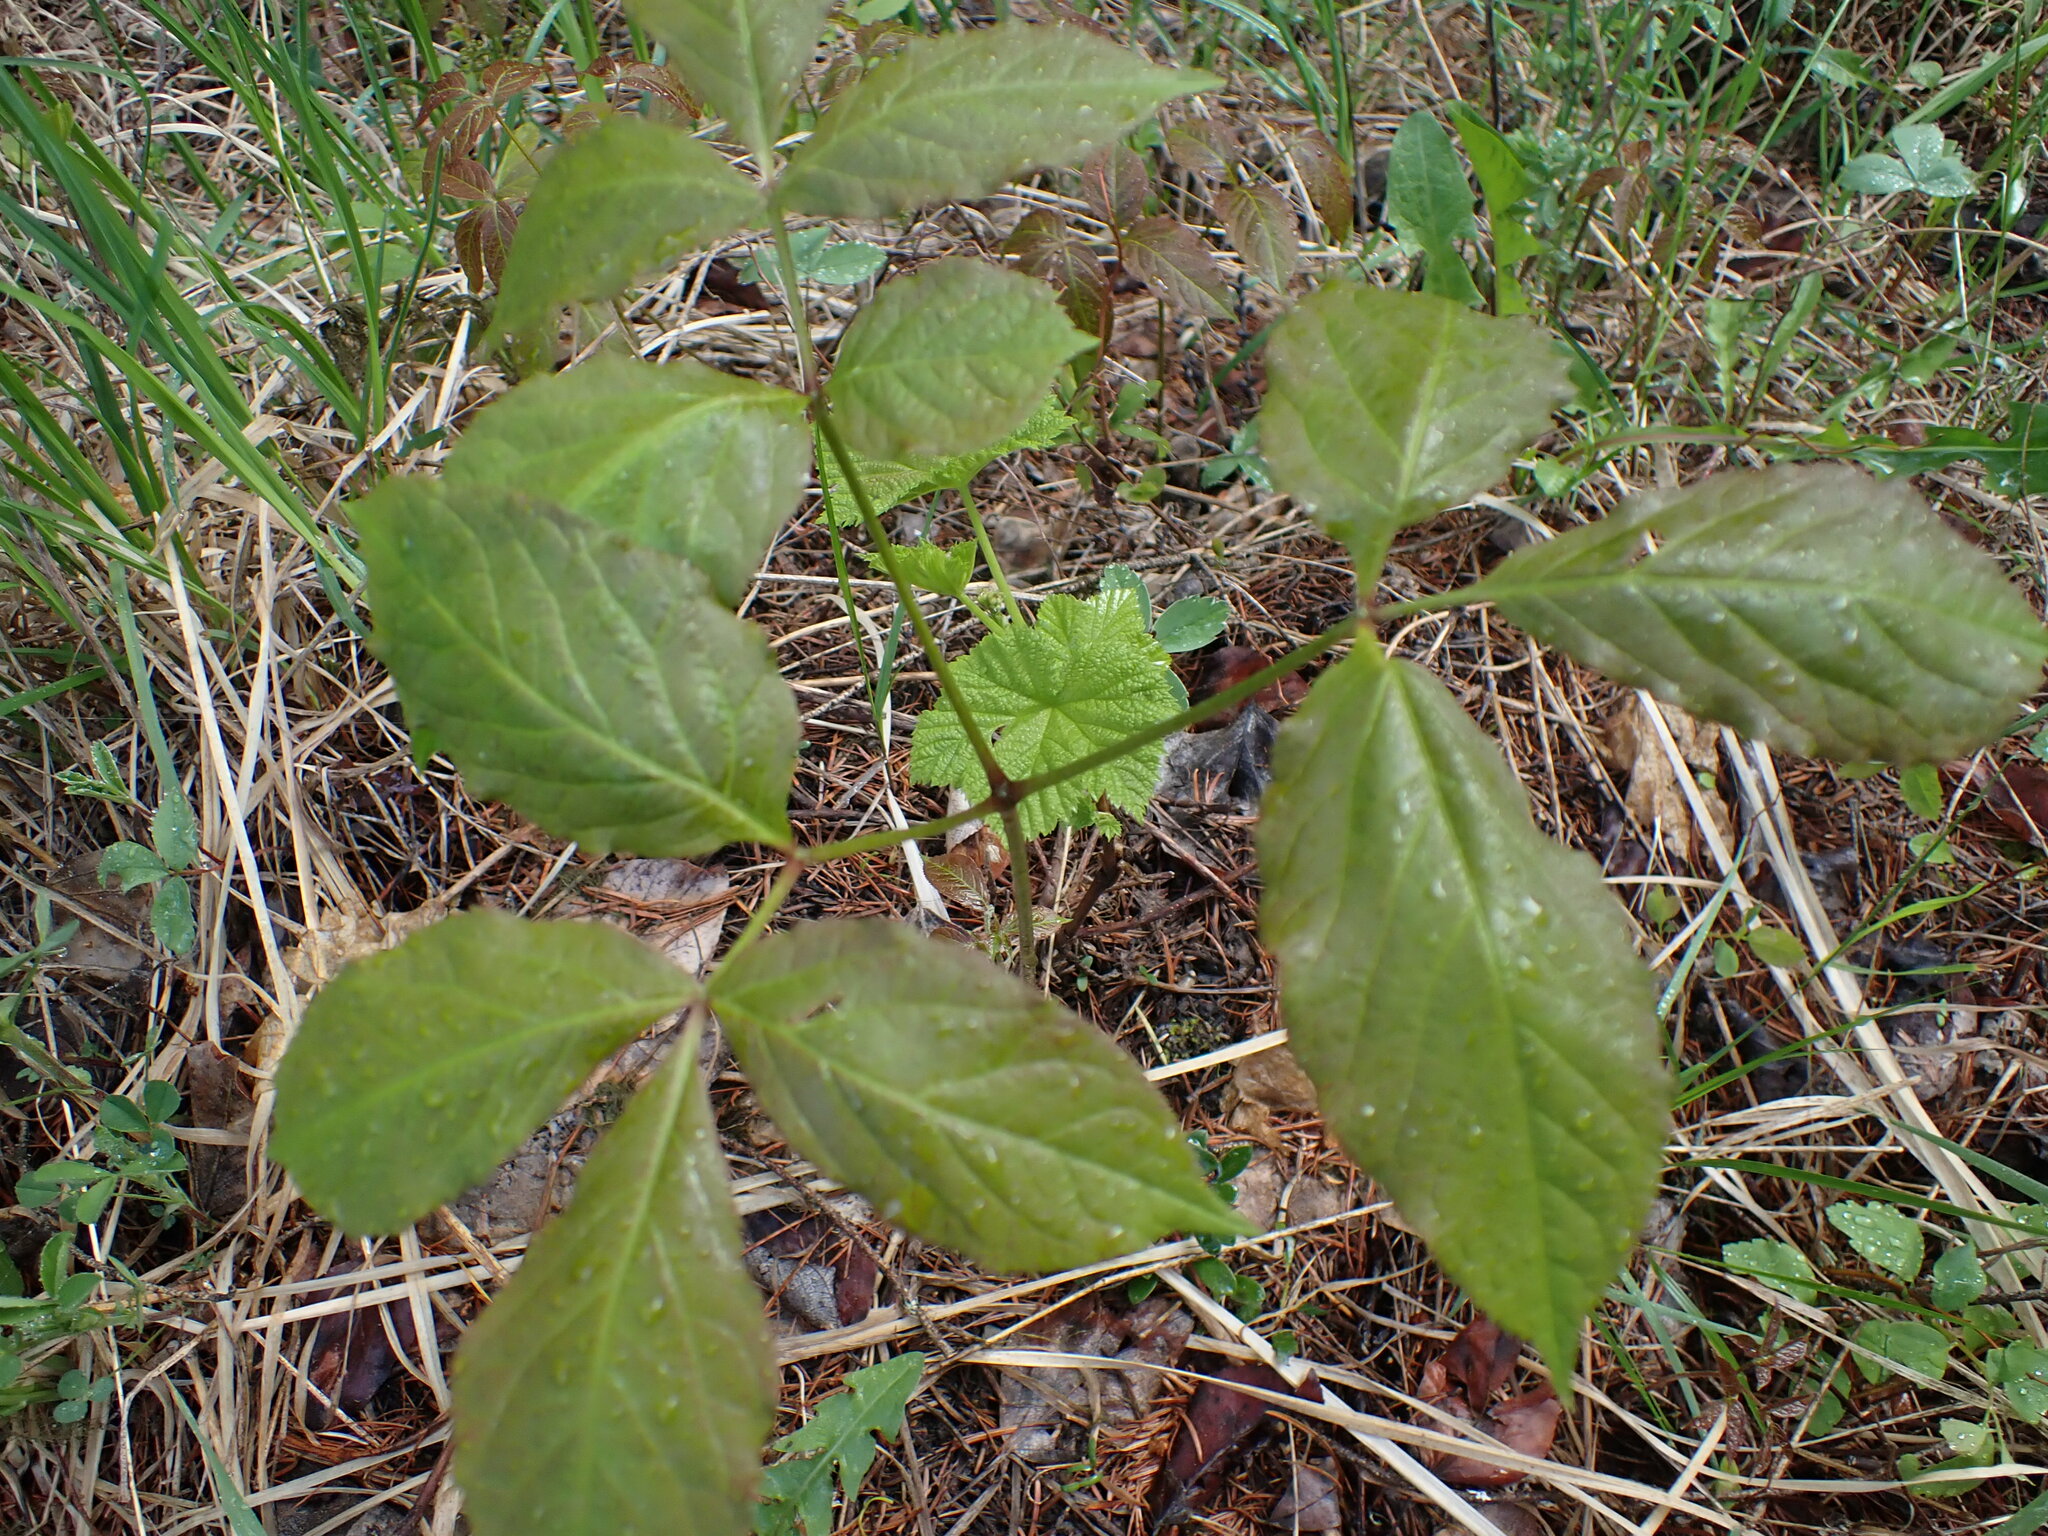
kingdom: Plantae
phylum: Tracheophyta
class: Magnoliopsida
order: Apiales
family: Araliaceae
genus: Aralia
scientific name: Aralia nudicaulis
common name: Wild sarsaparilla
